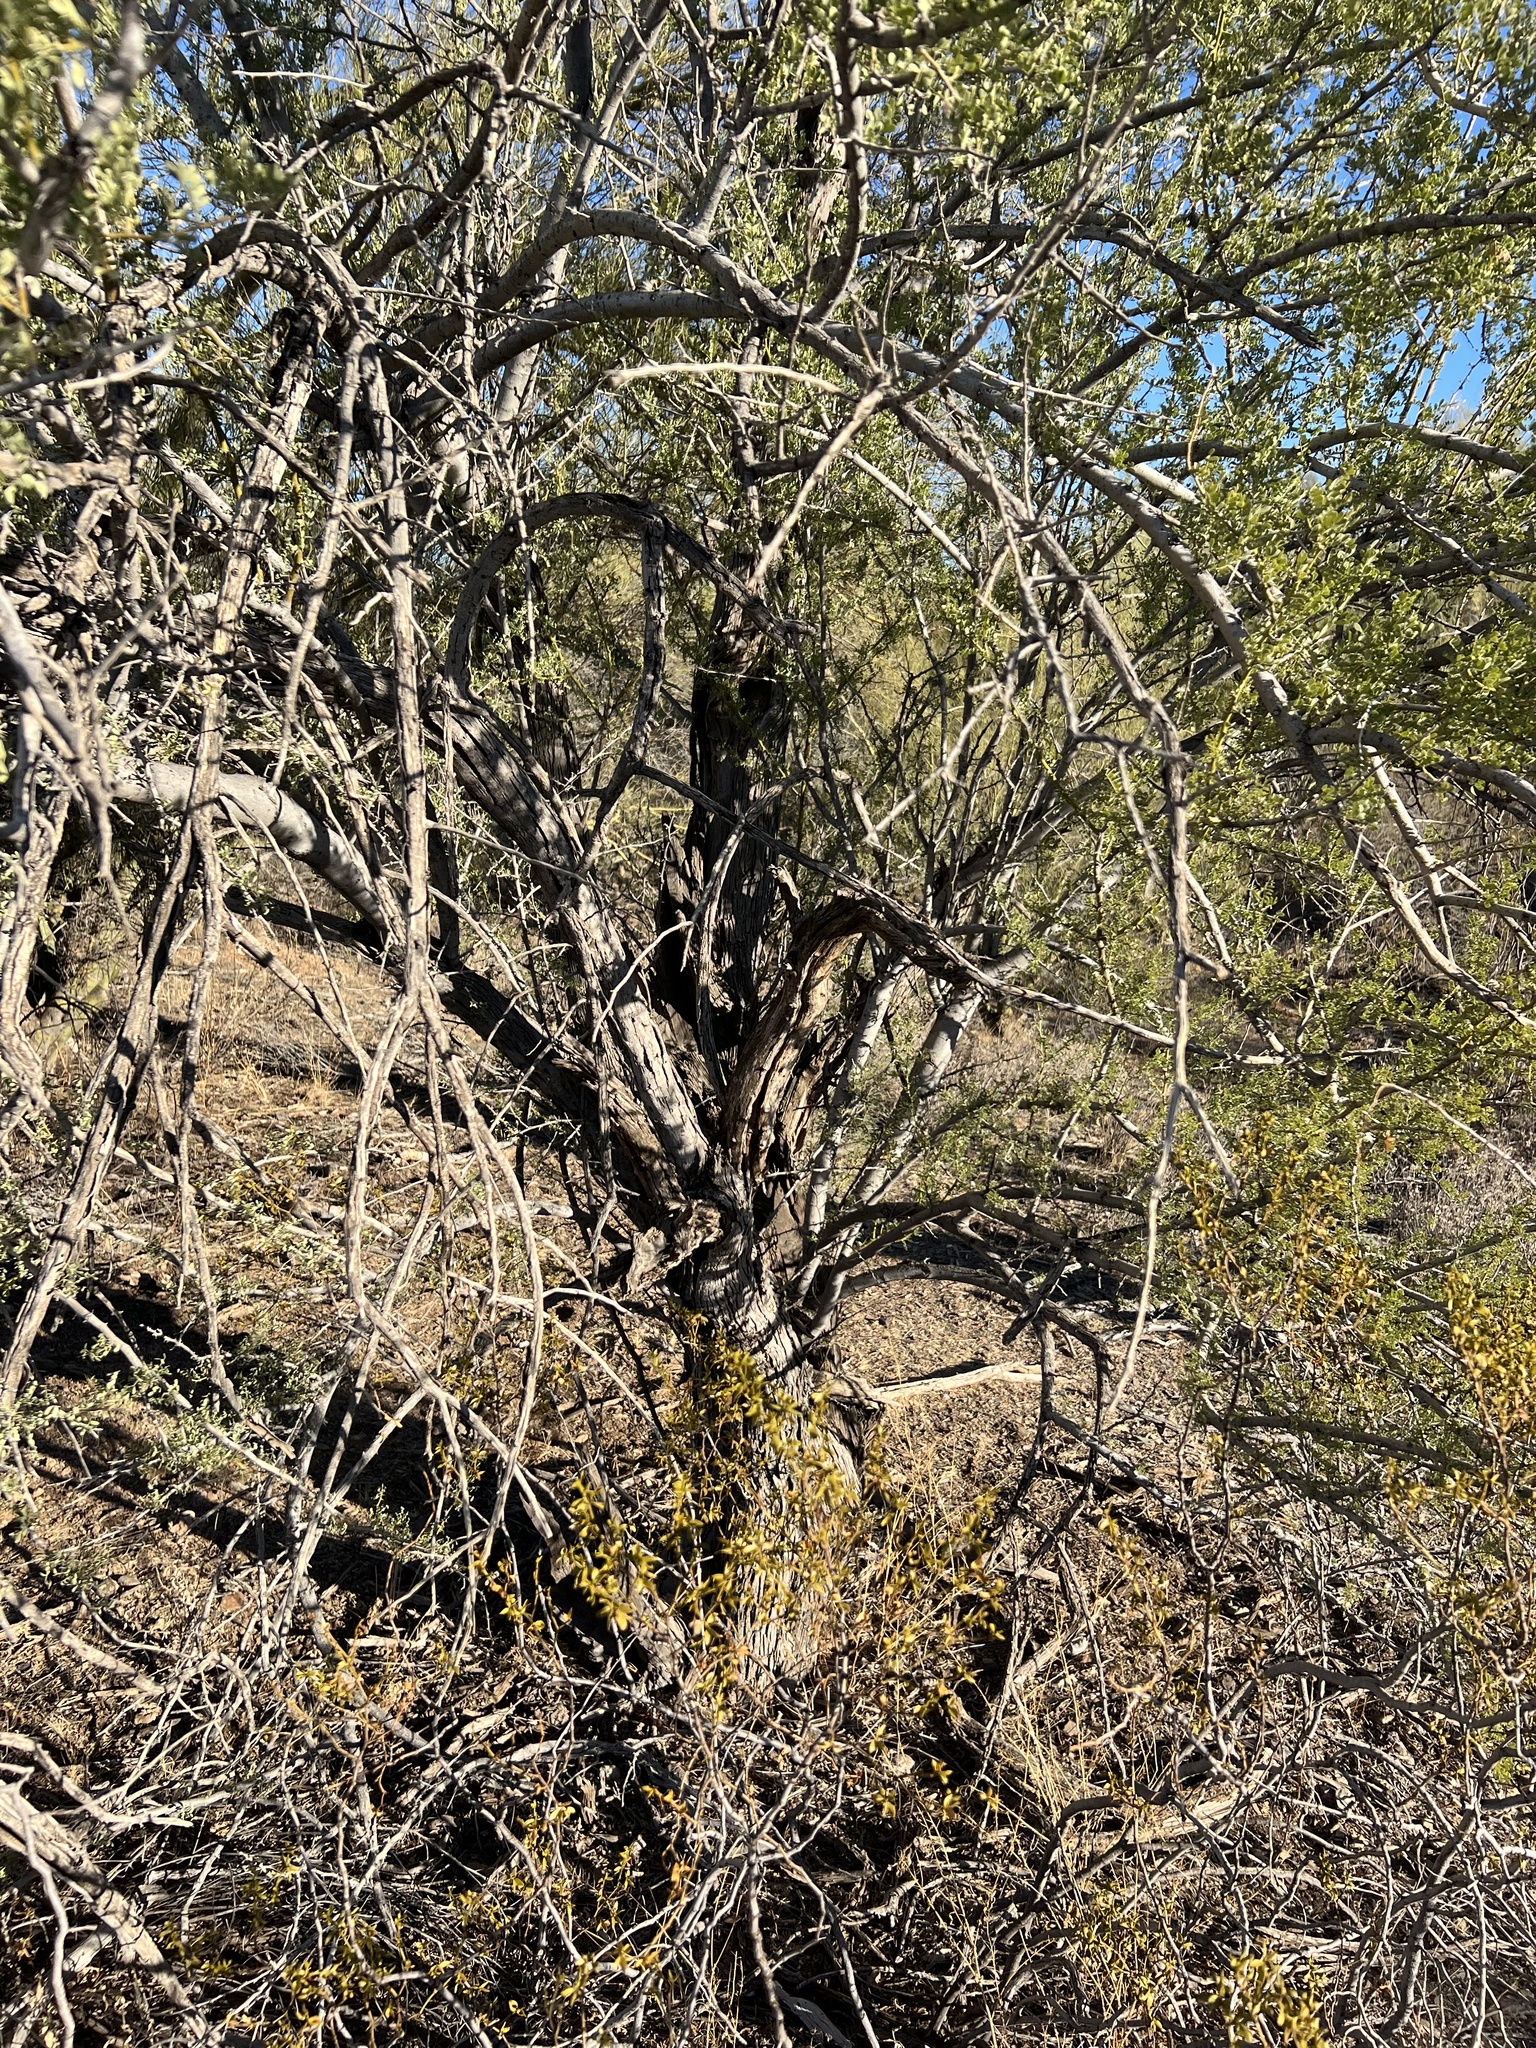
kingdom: Plantae
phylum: Tracheophyta
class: Magnoliopsida
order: Fabales
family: Fabaceae
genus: Olneya
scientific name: Olneya tesota
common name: Desert ironwood
